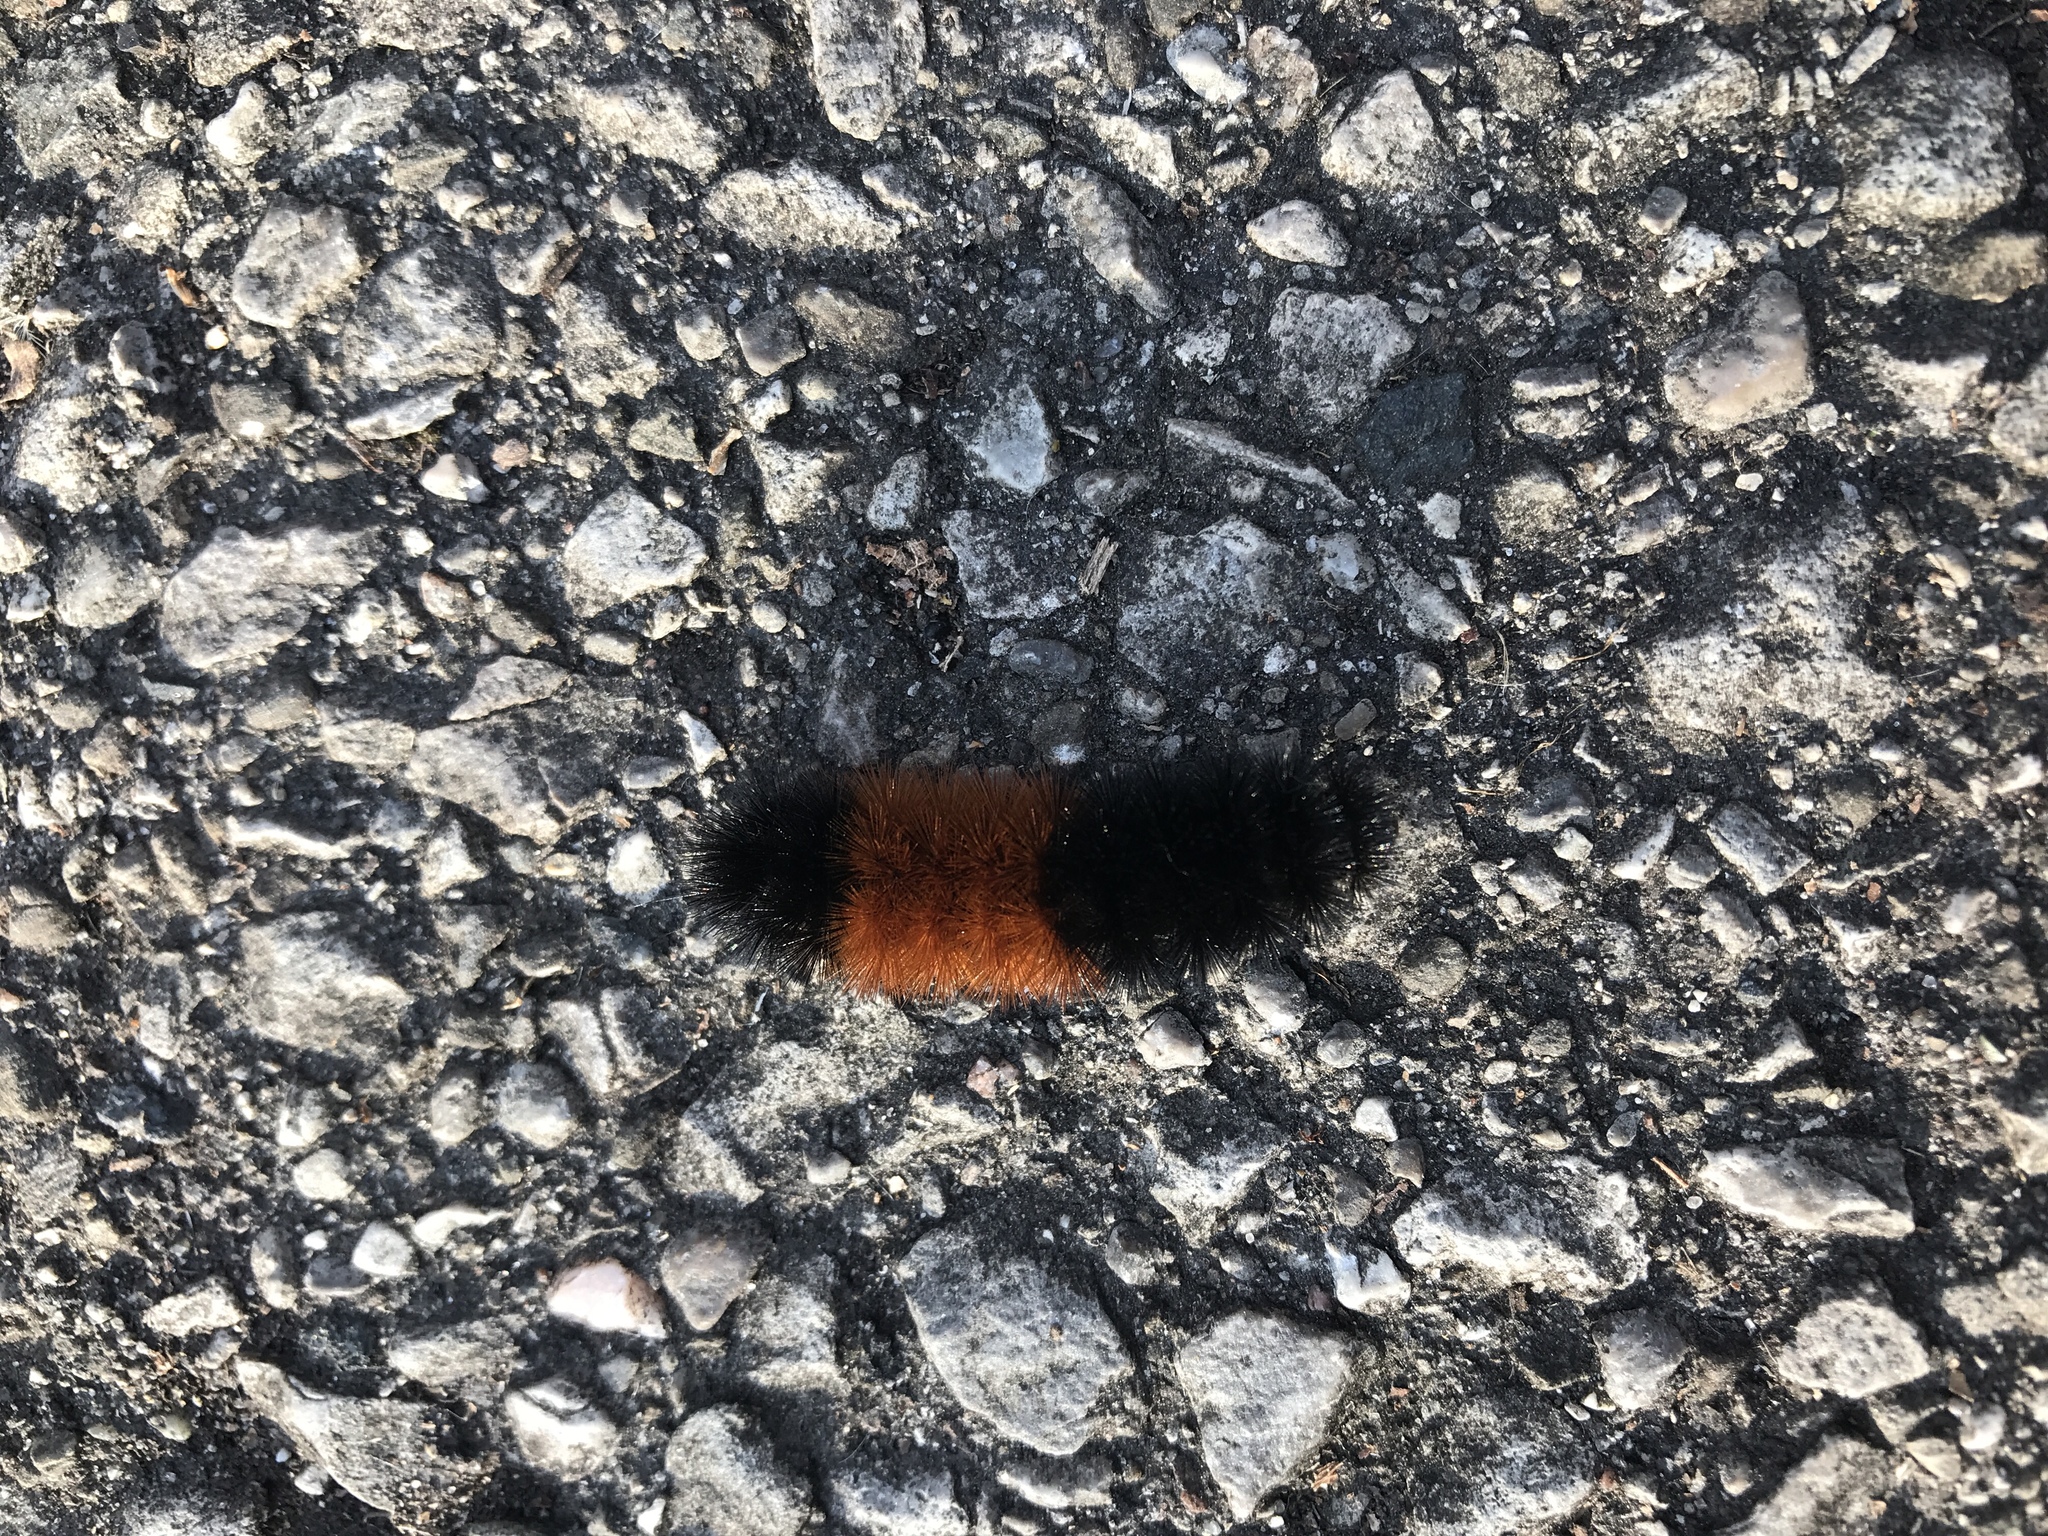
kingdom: Animalia
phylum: Arthropoda
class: Insecta
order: Lepidoptera
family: Erebidae
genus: Pyrrharctia
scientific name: Pyrrharctia isabella
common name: Isabella tiger moth
